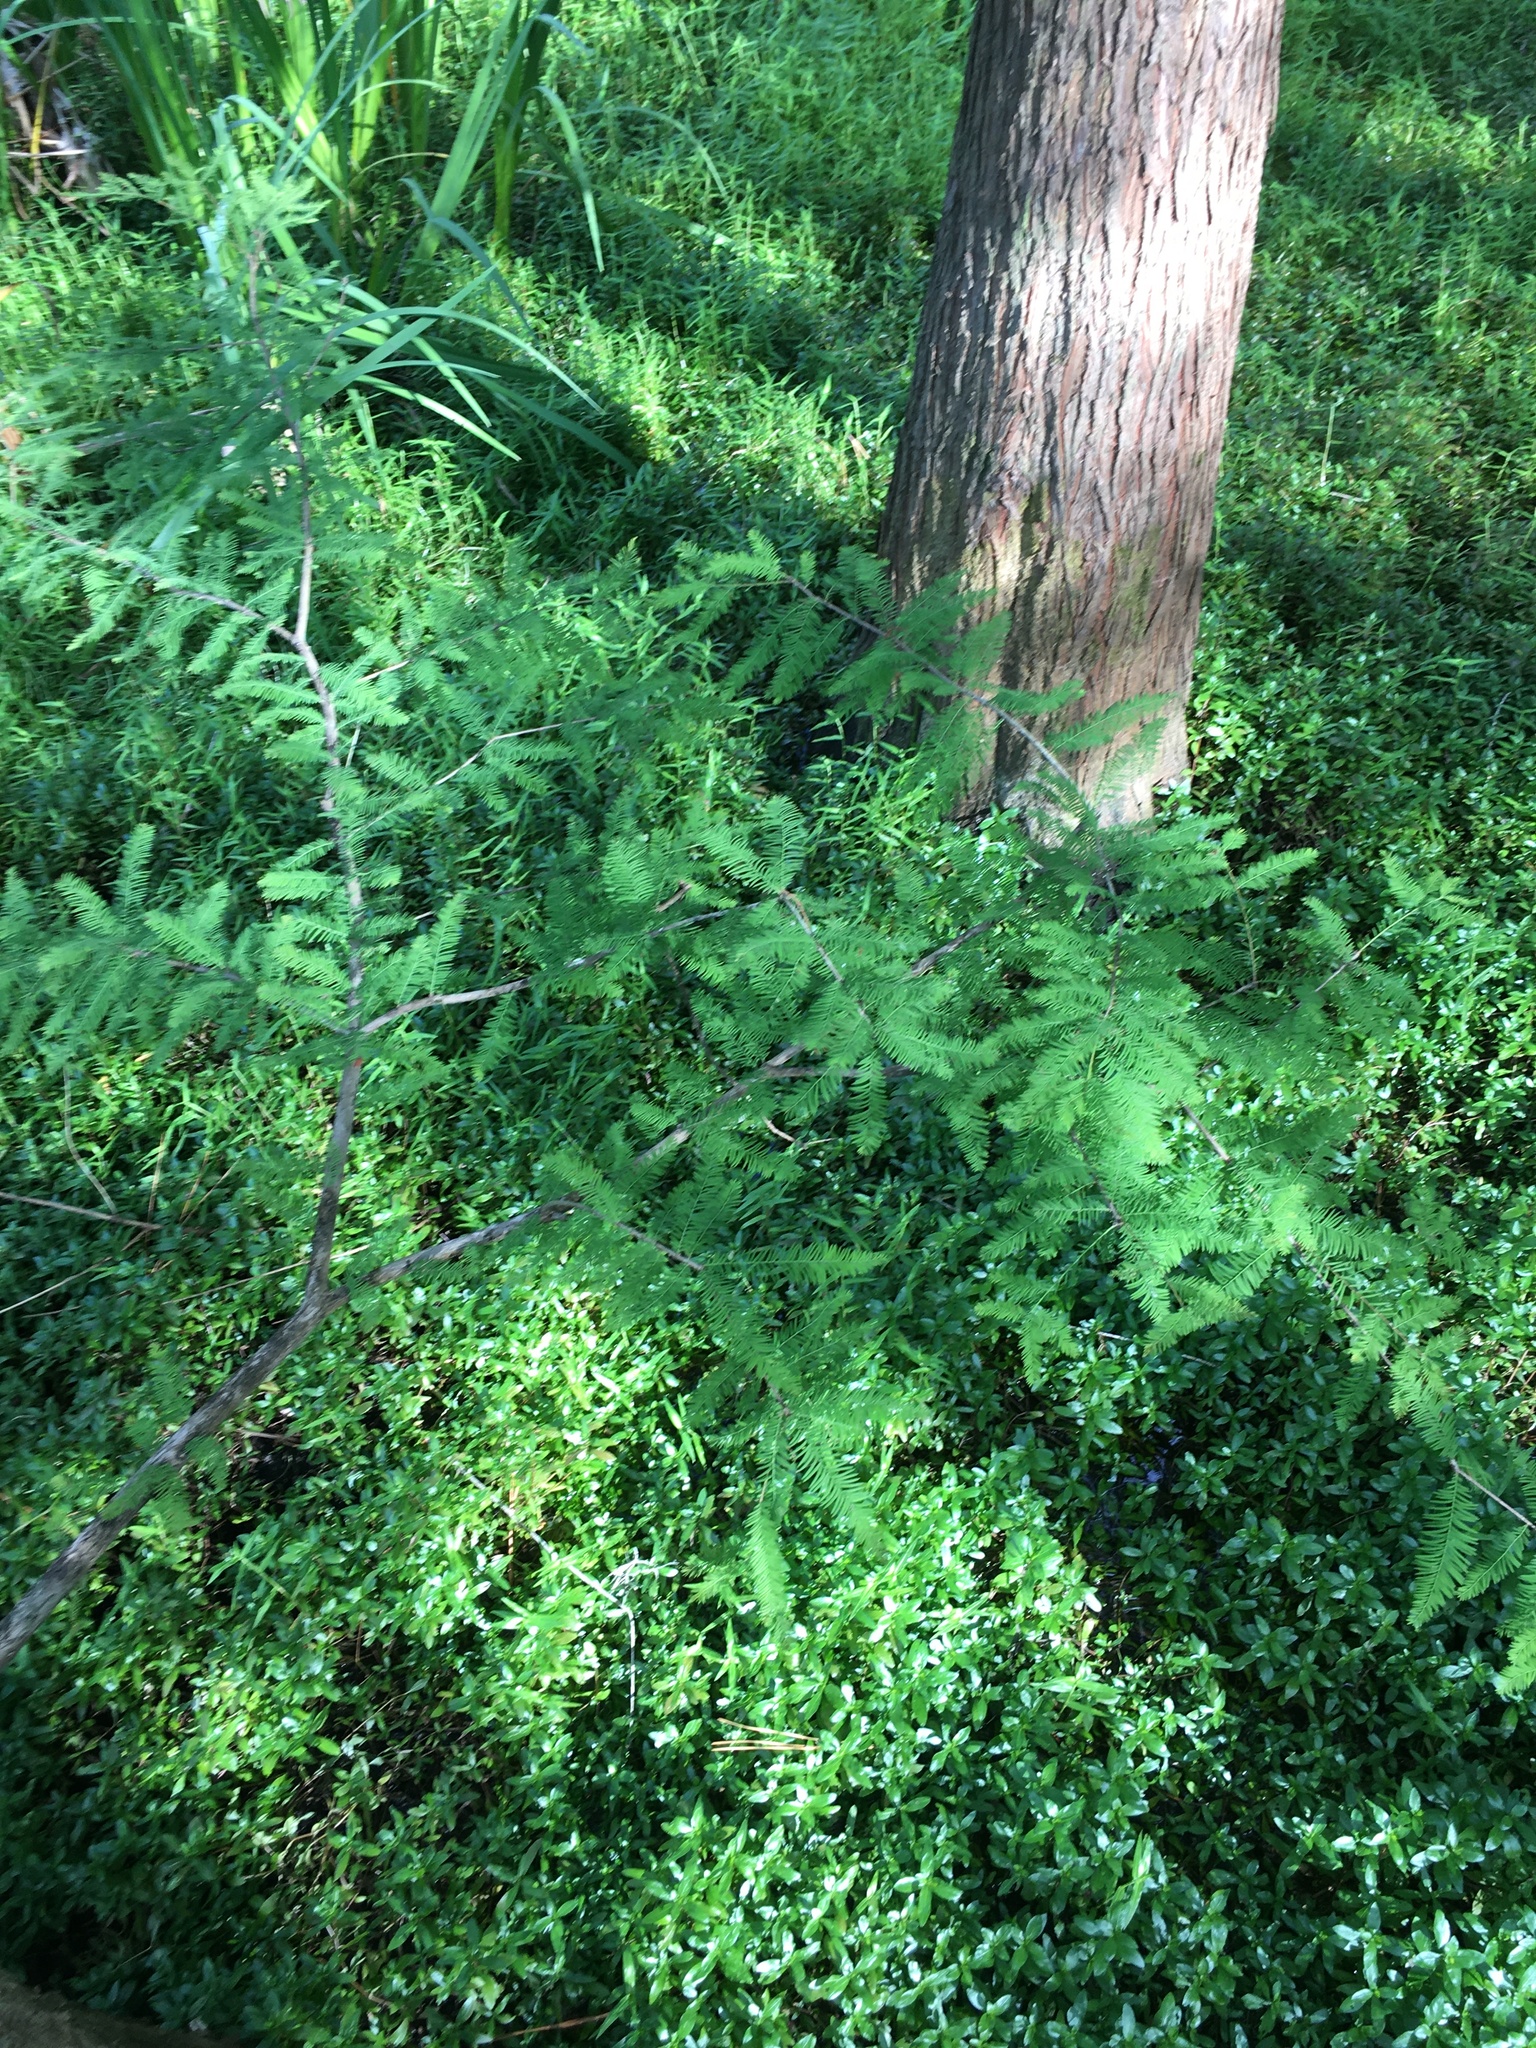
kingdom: Plantae
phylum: Tracheophyta
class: Pinopsida
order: Pinales
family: Cupressaceae
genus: Taxodium
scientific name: Taxodium distichum
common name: Bald cypress
